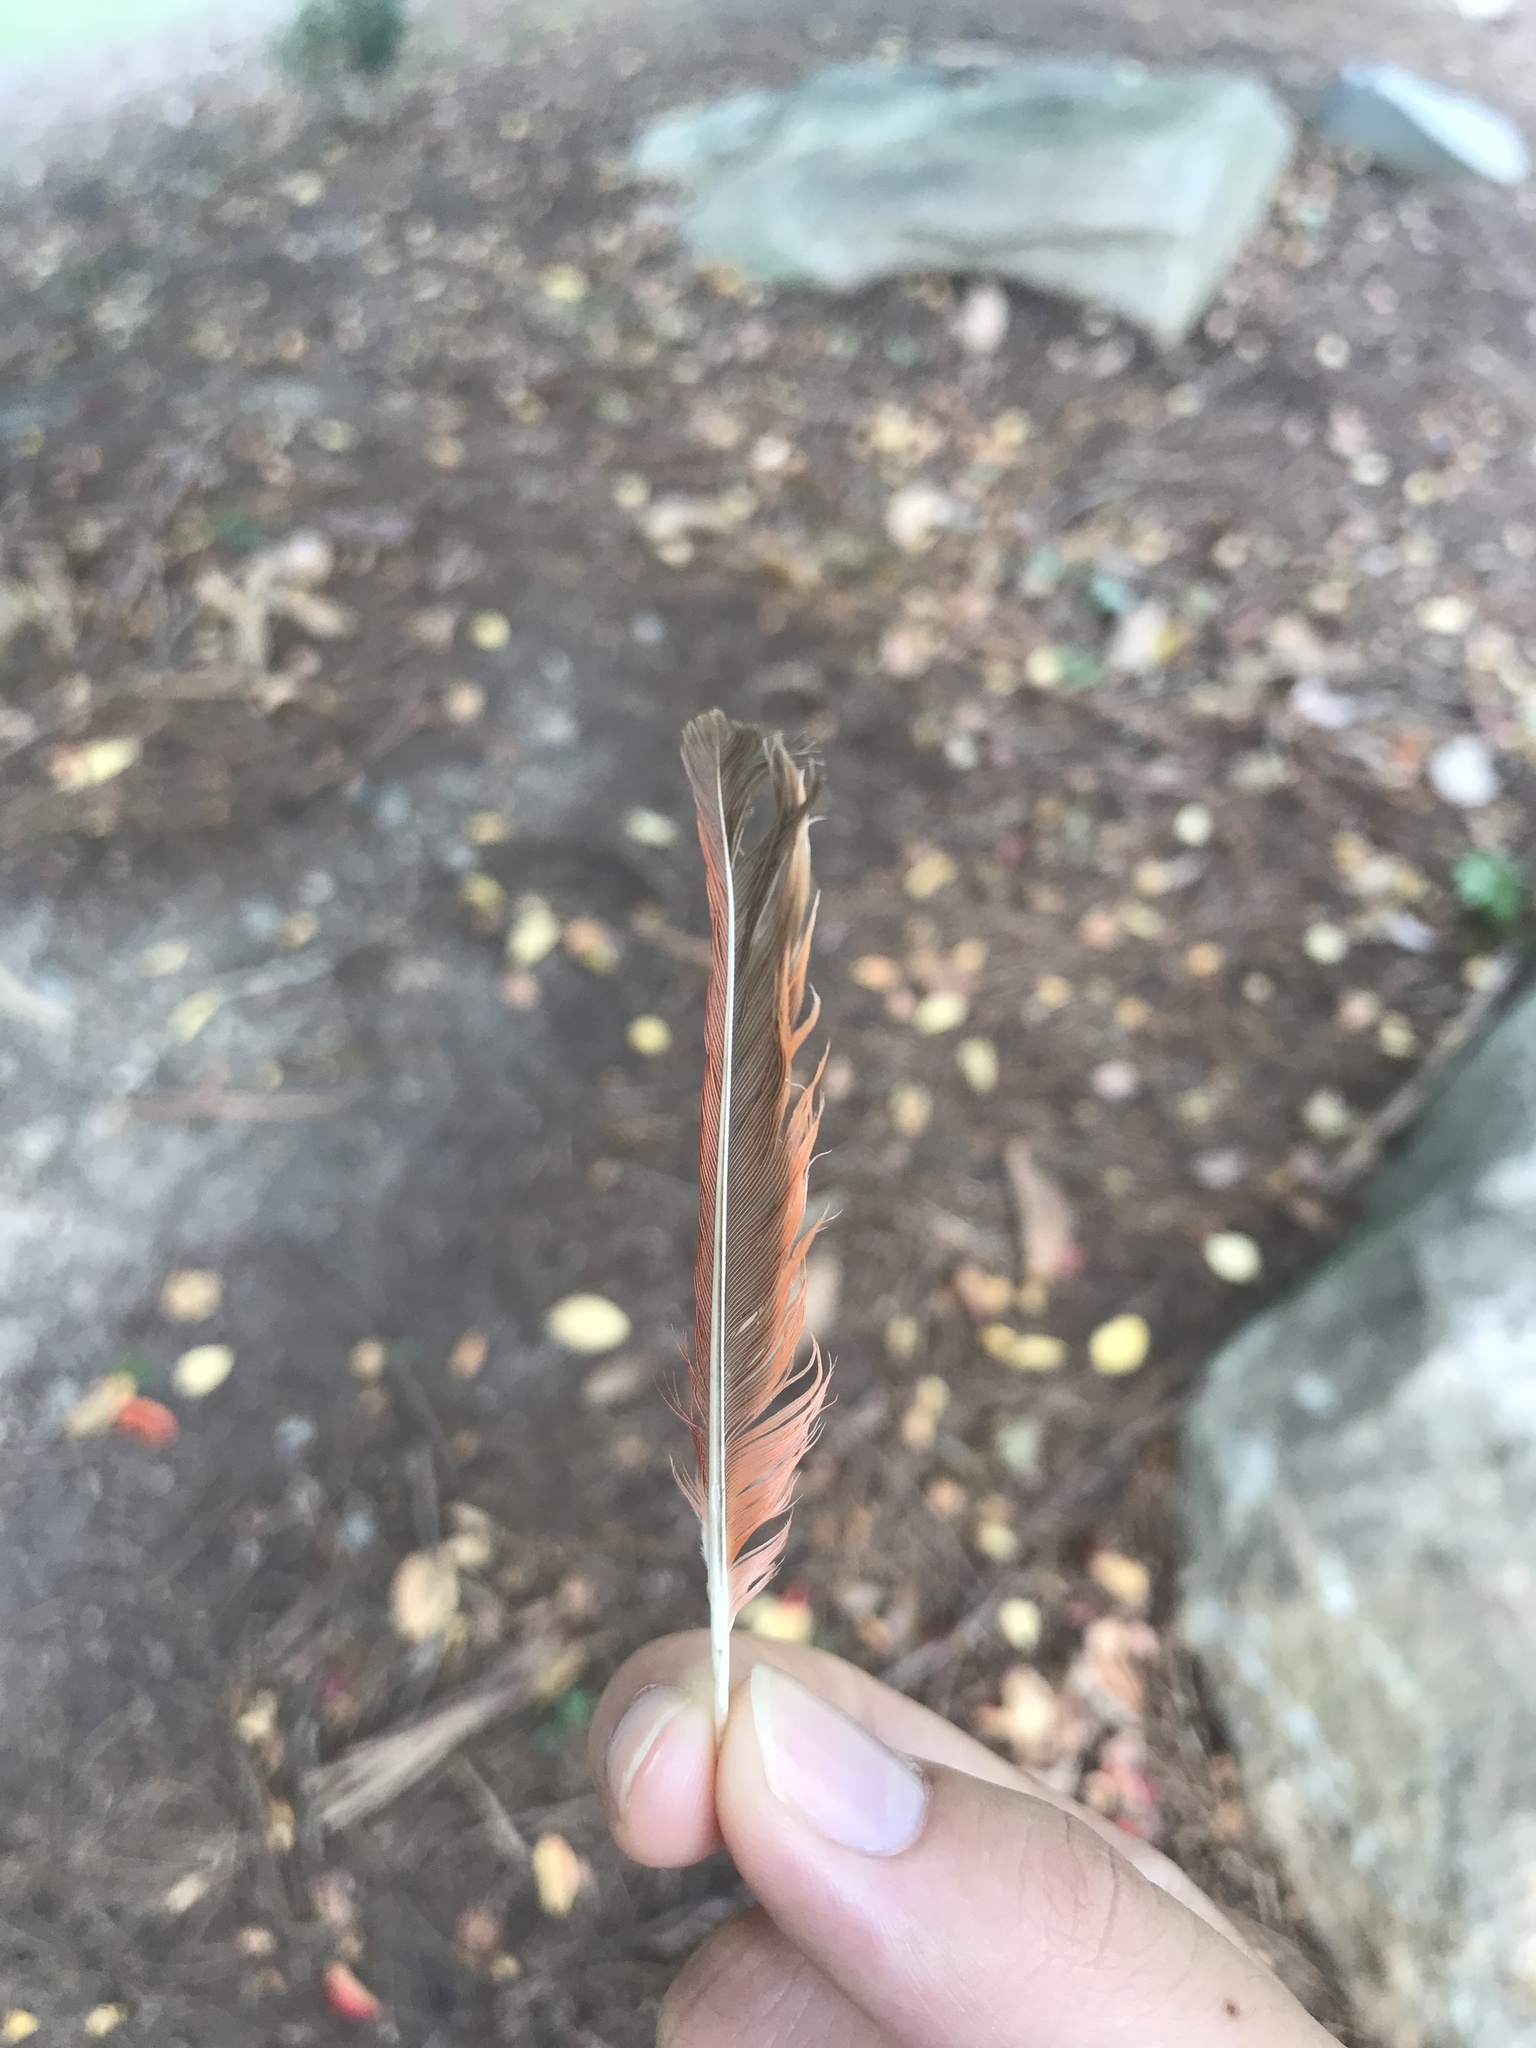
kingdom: Animalia
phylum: Chordata
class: Aves
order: Passeriformes
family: Cardinalidae
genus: Cardinalis
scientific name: Cardinalis cardinalis
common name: Northern cardinal
